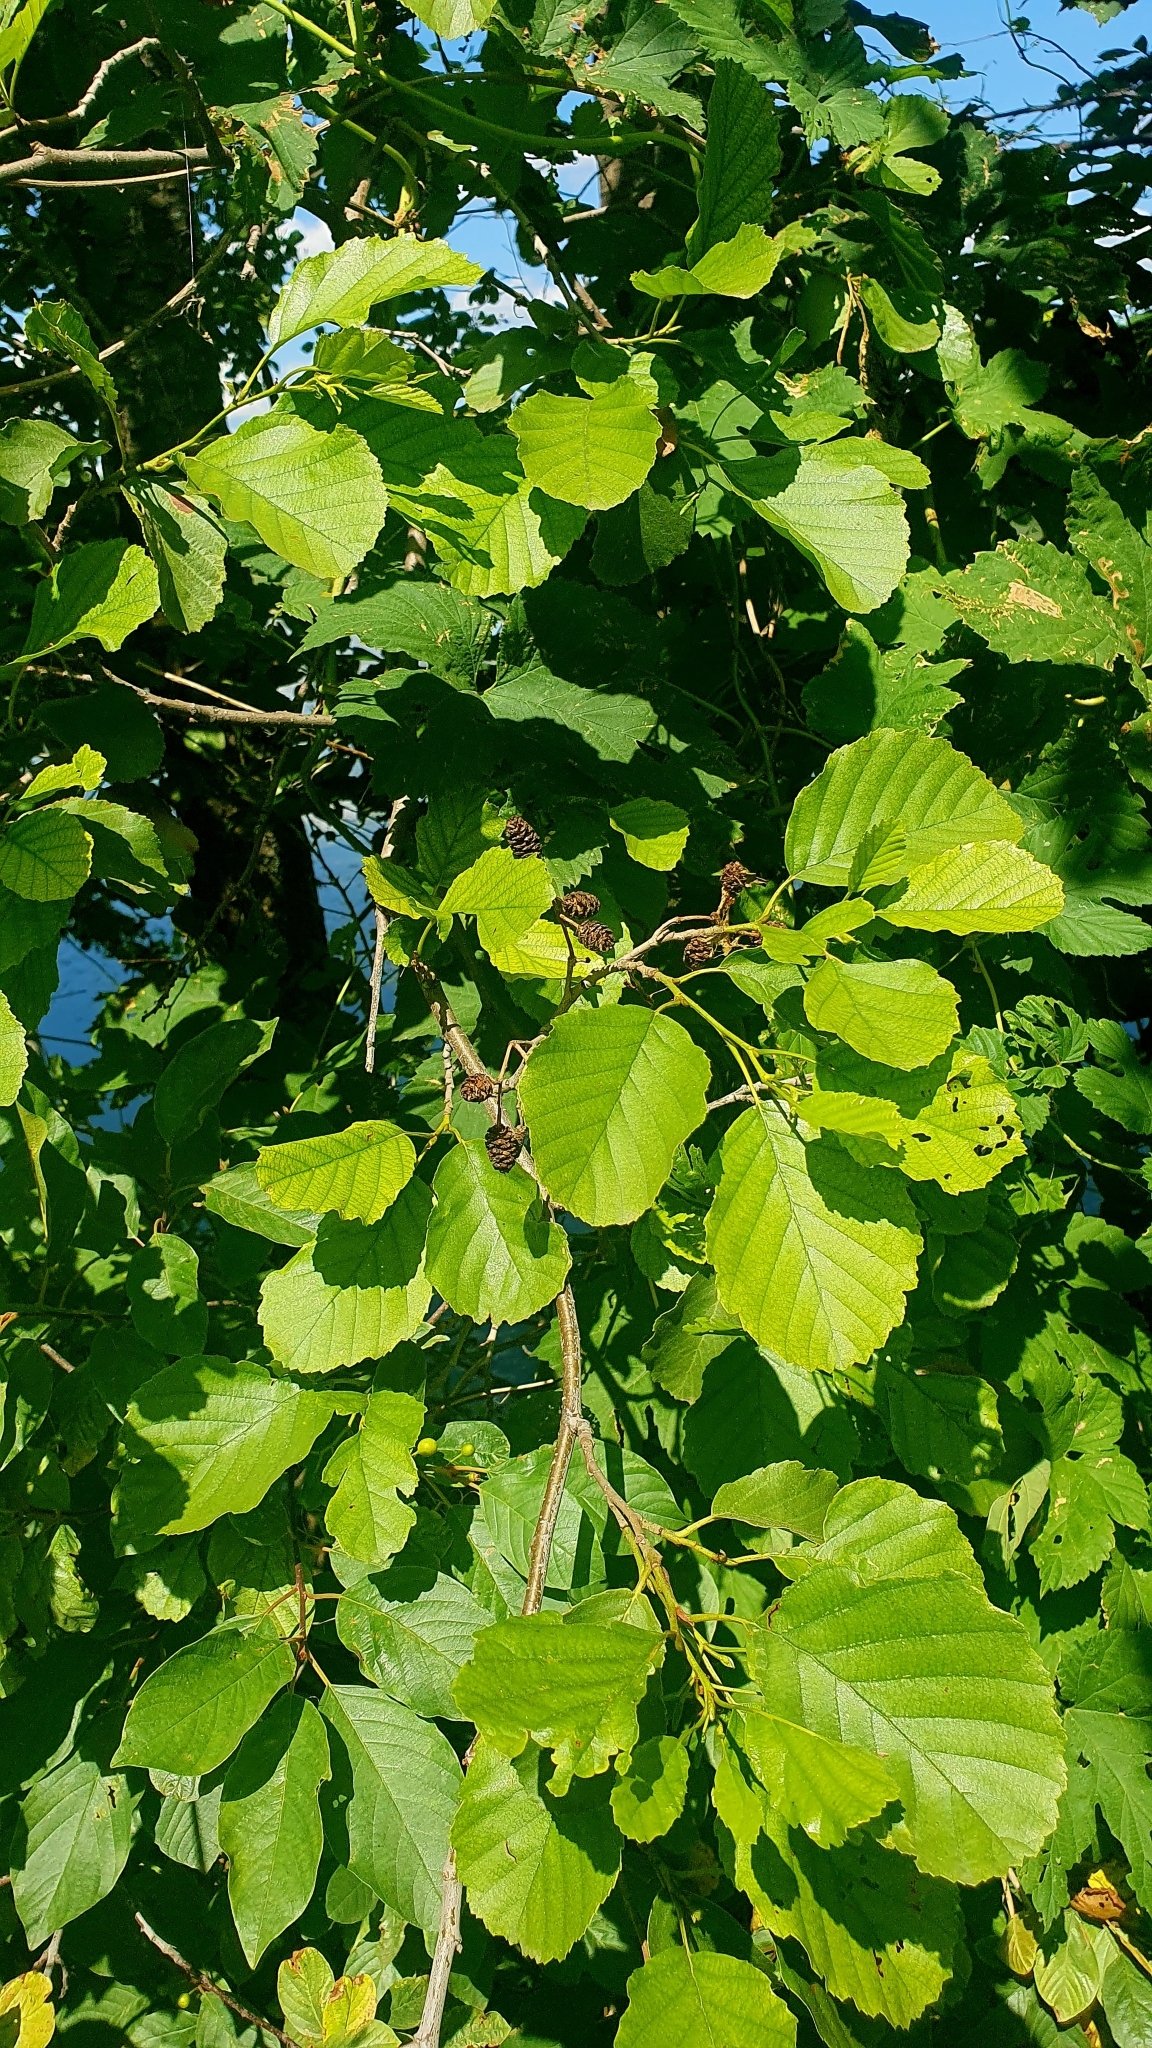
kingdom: Plantae
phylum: Tracheophyta
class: Magnoliopsida
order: Fagales
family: Betulaceae
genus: Alnus
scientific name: Alnus glutinosa
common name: Black alder
